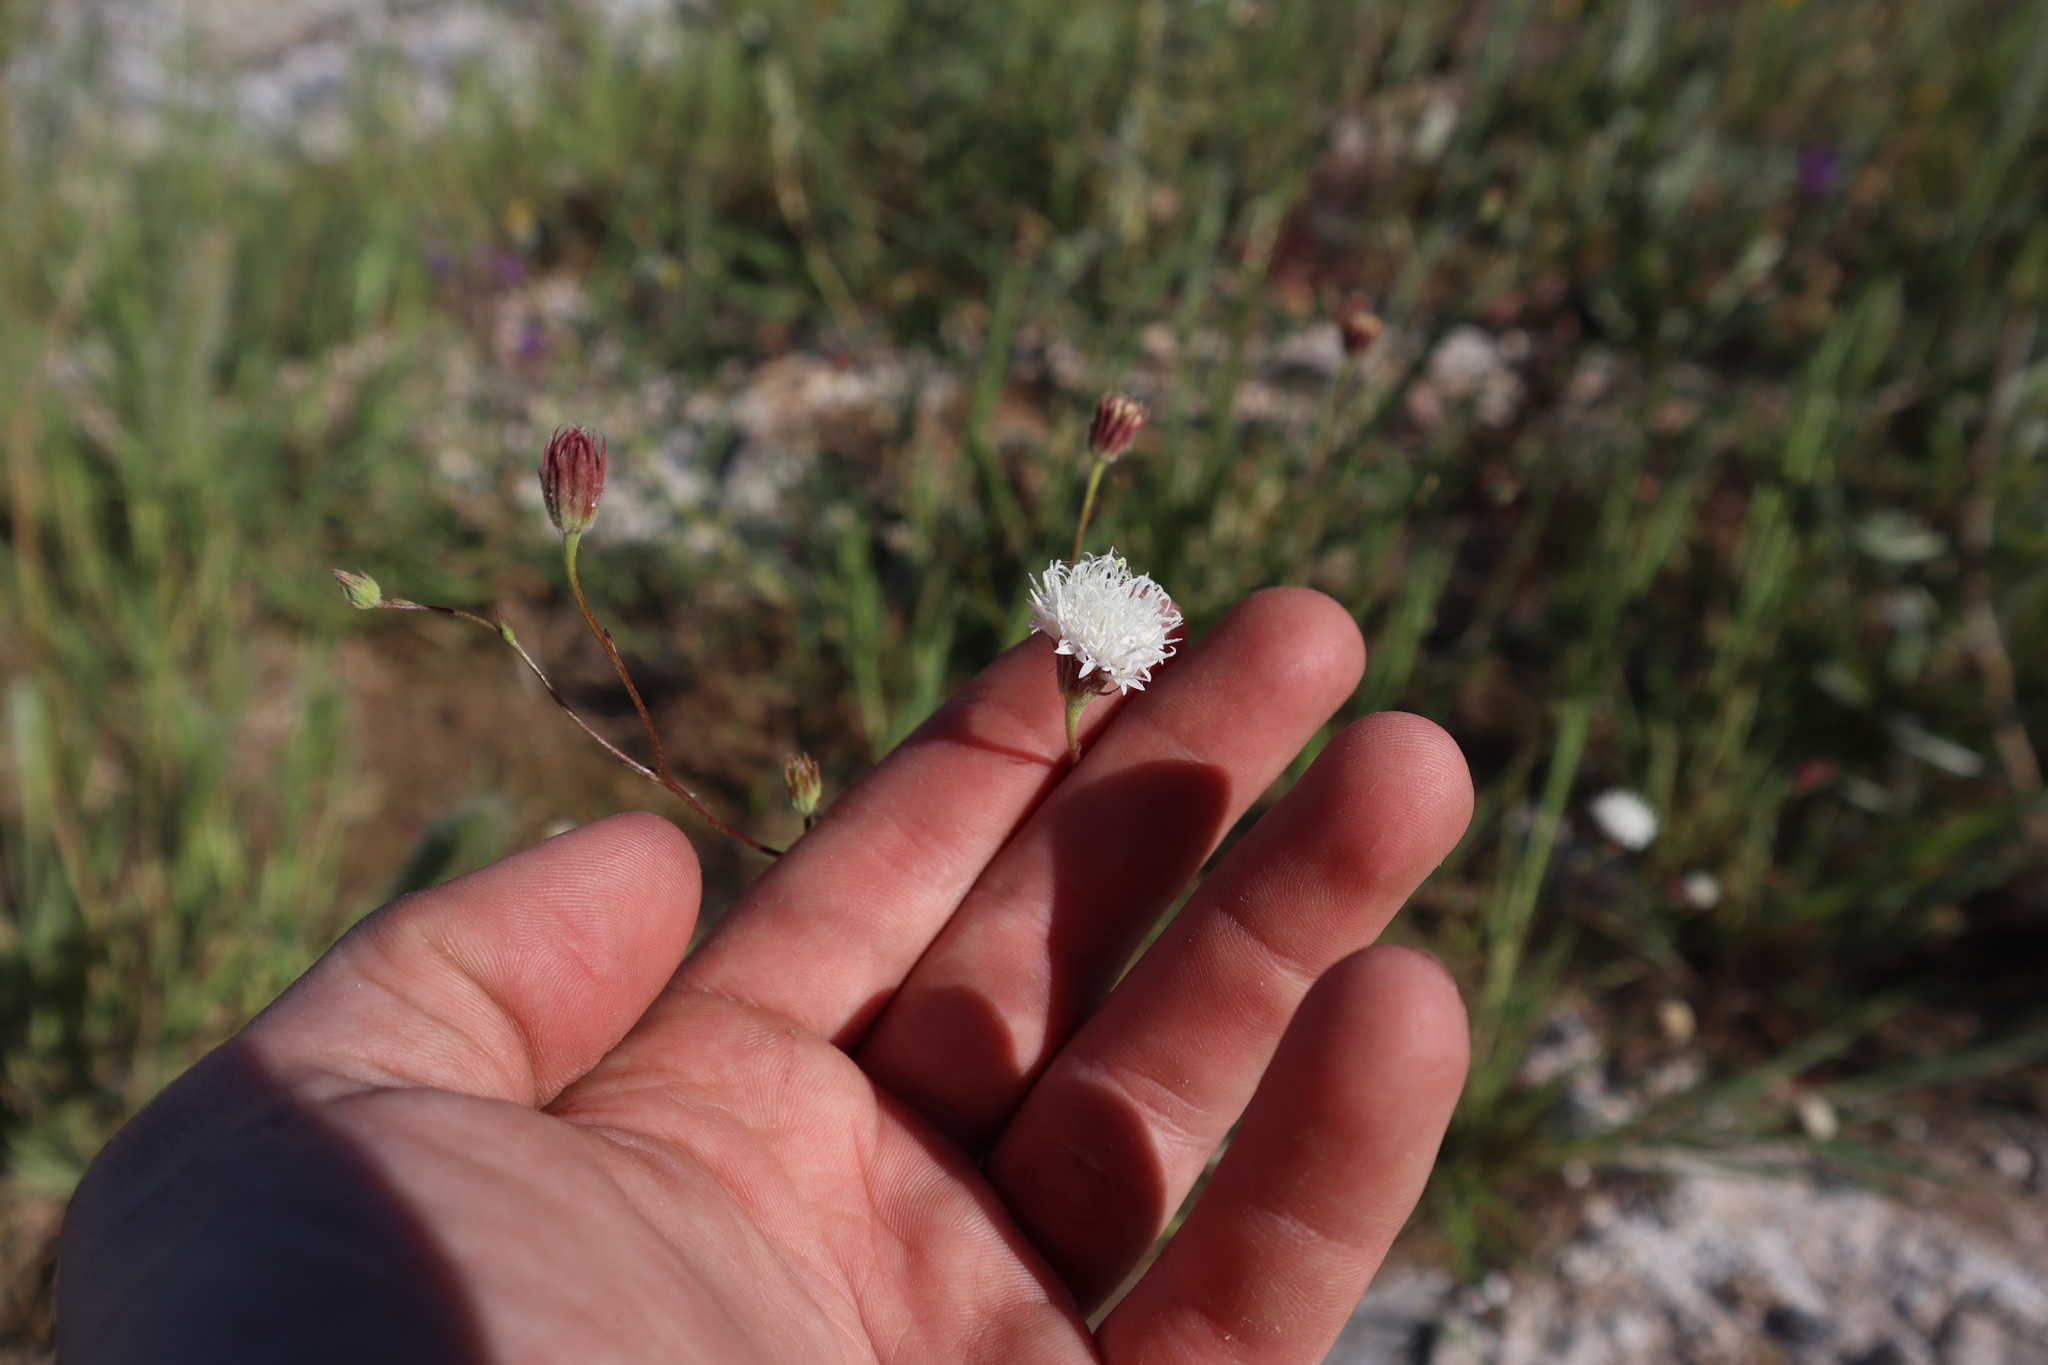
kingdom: Plantae
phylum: Tracheophyta
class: Magnoliopsida
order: Asterales
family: Asteraceae
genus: Chaenactis
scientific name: Chaenactis carphoclinia
